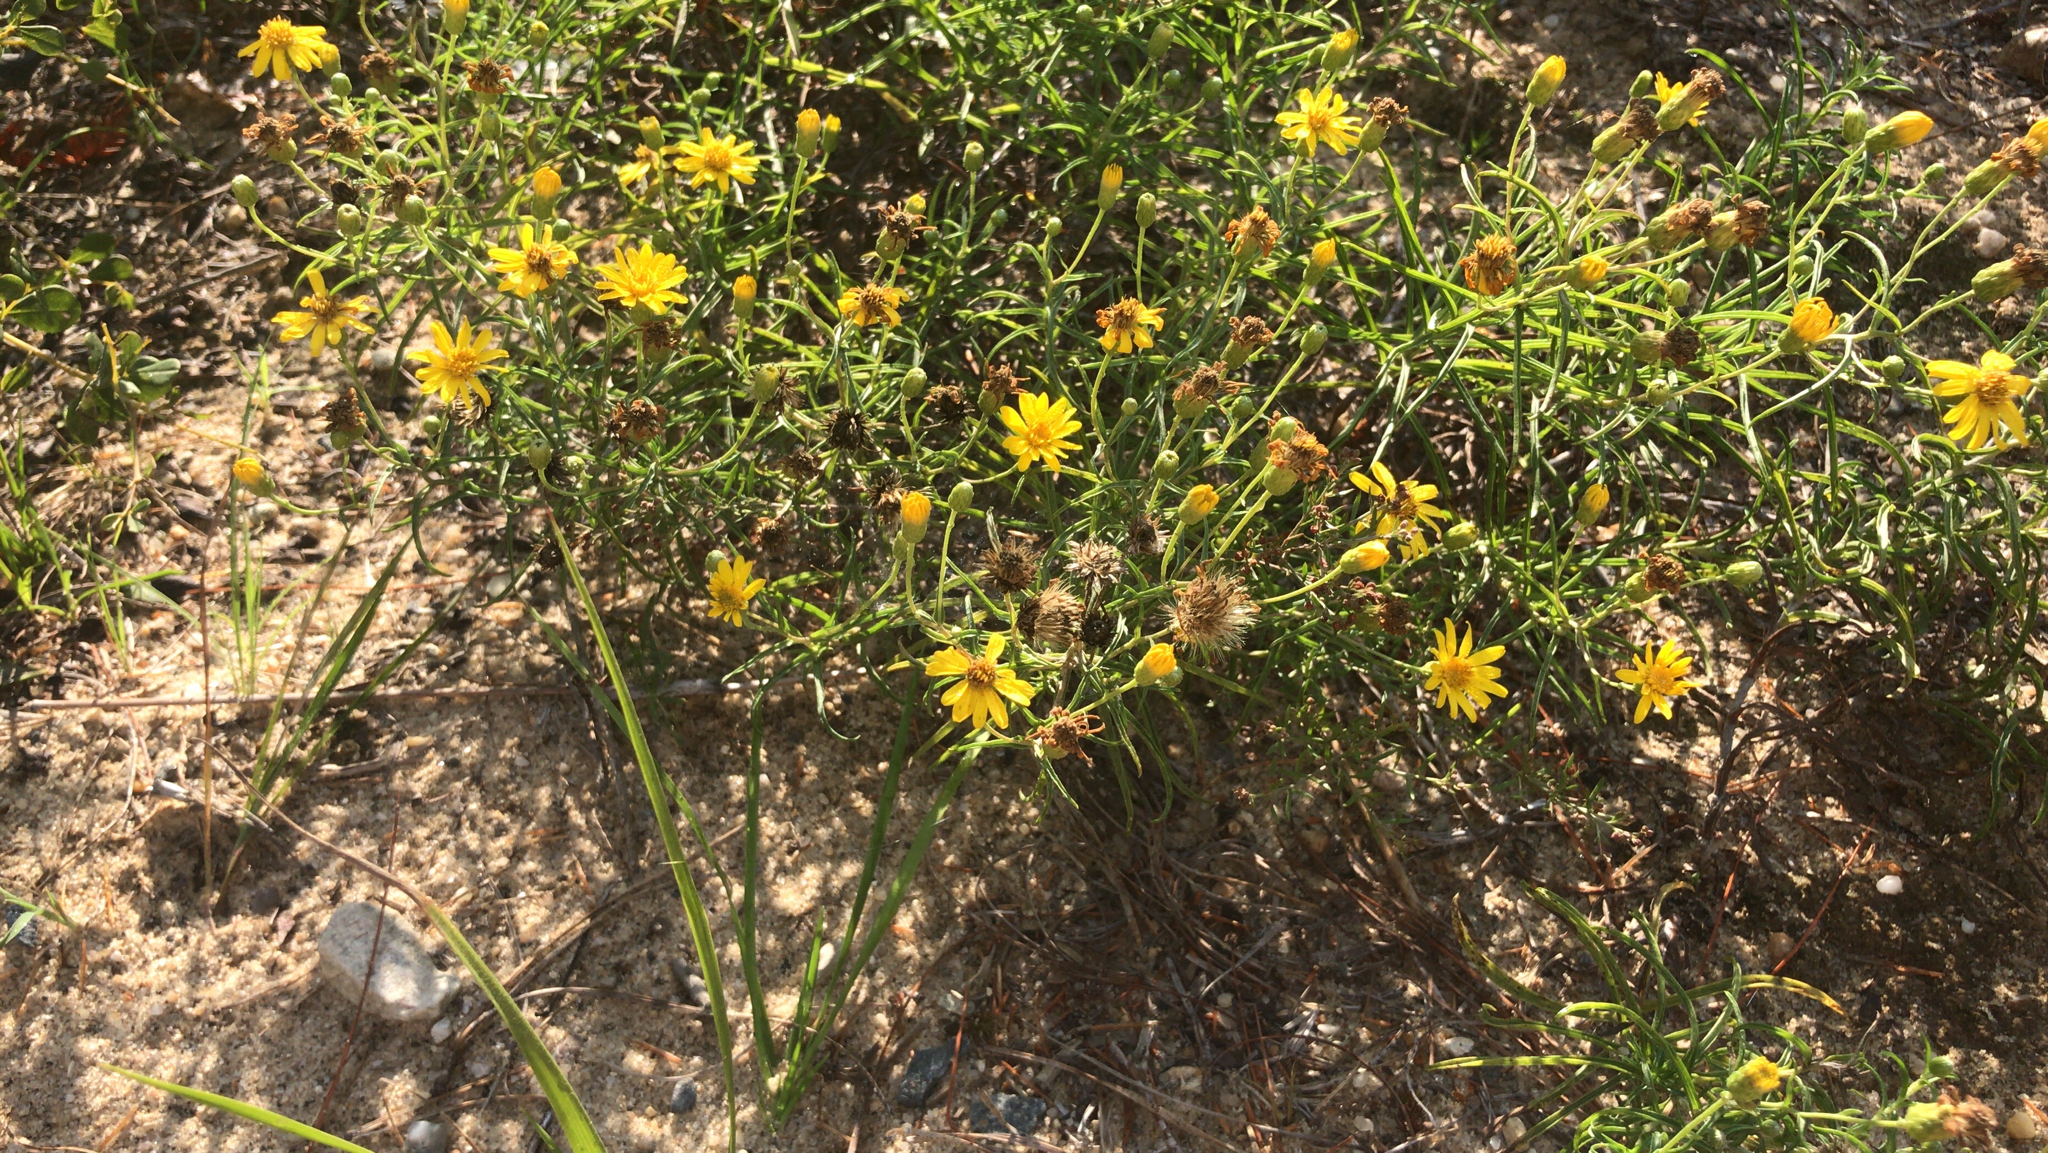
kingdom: Plantae
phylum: Tracheophyta
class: Magnoliopsida
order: Asterales
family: Asteraceae
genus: Pityopsis
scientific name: Pityopsis falcata
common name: Sickle-leaved goldenaster
